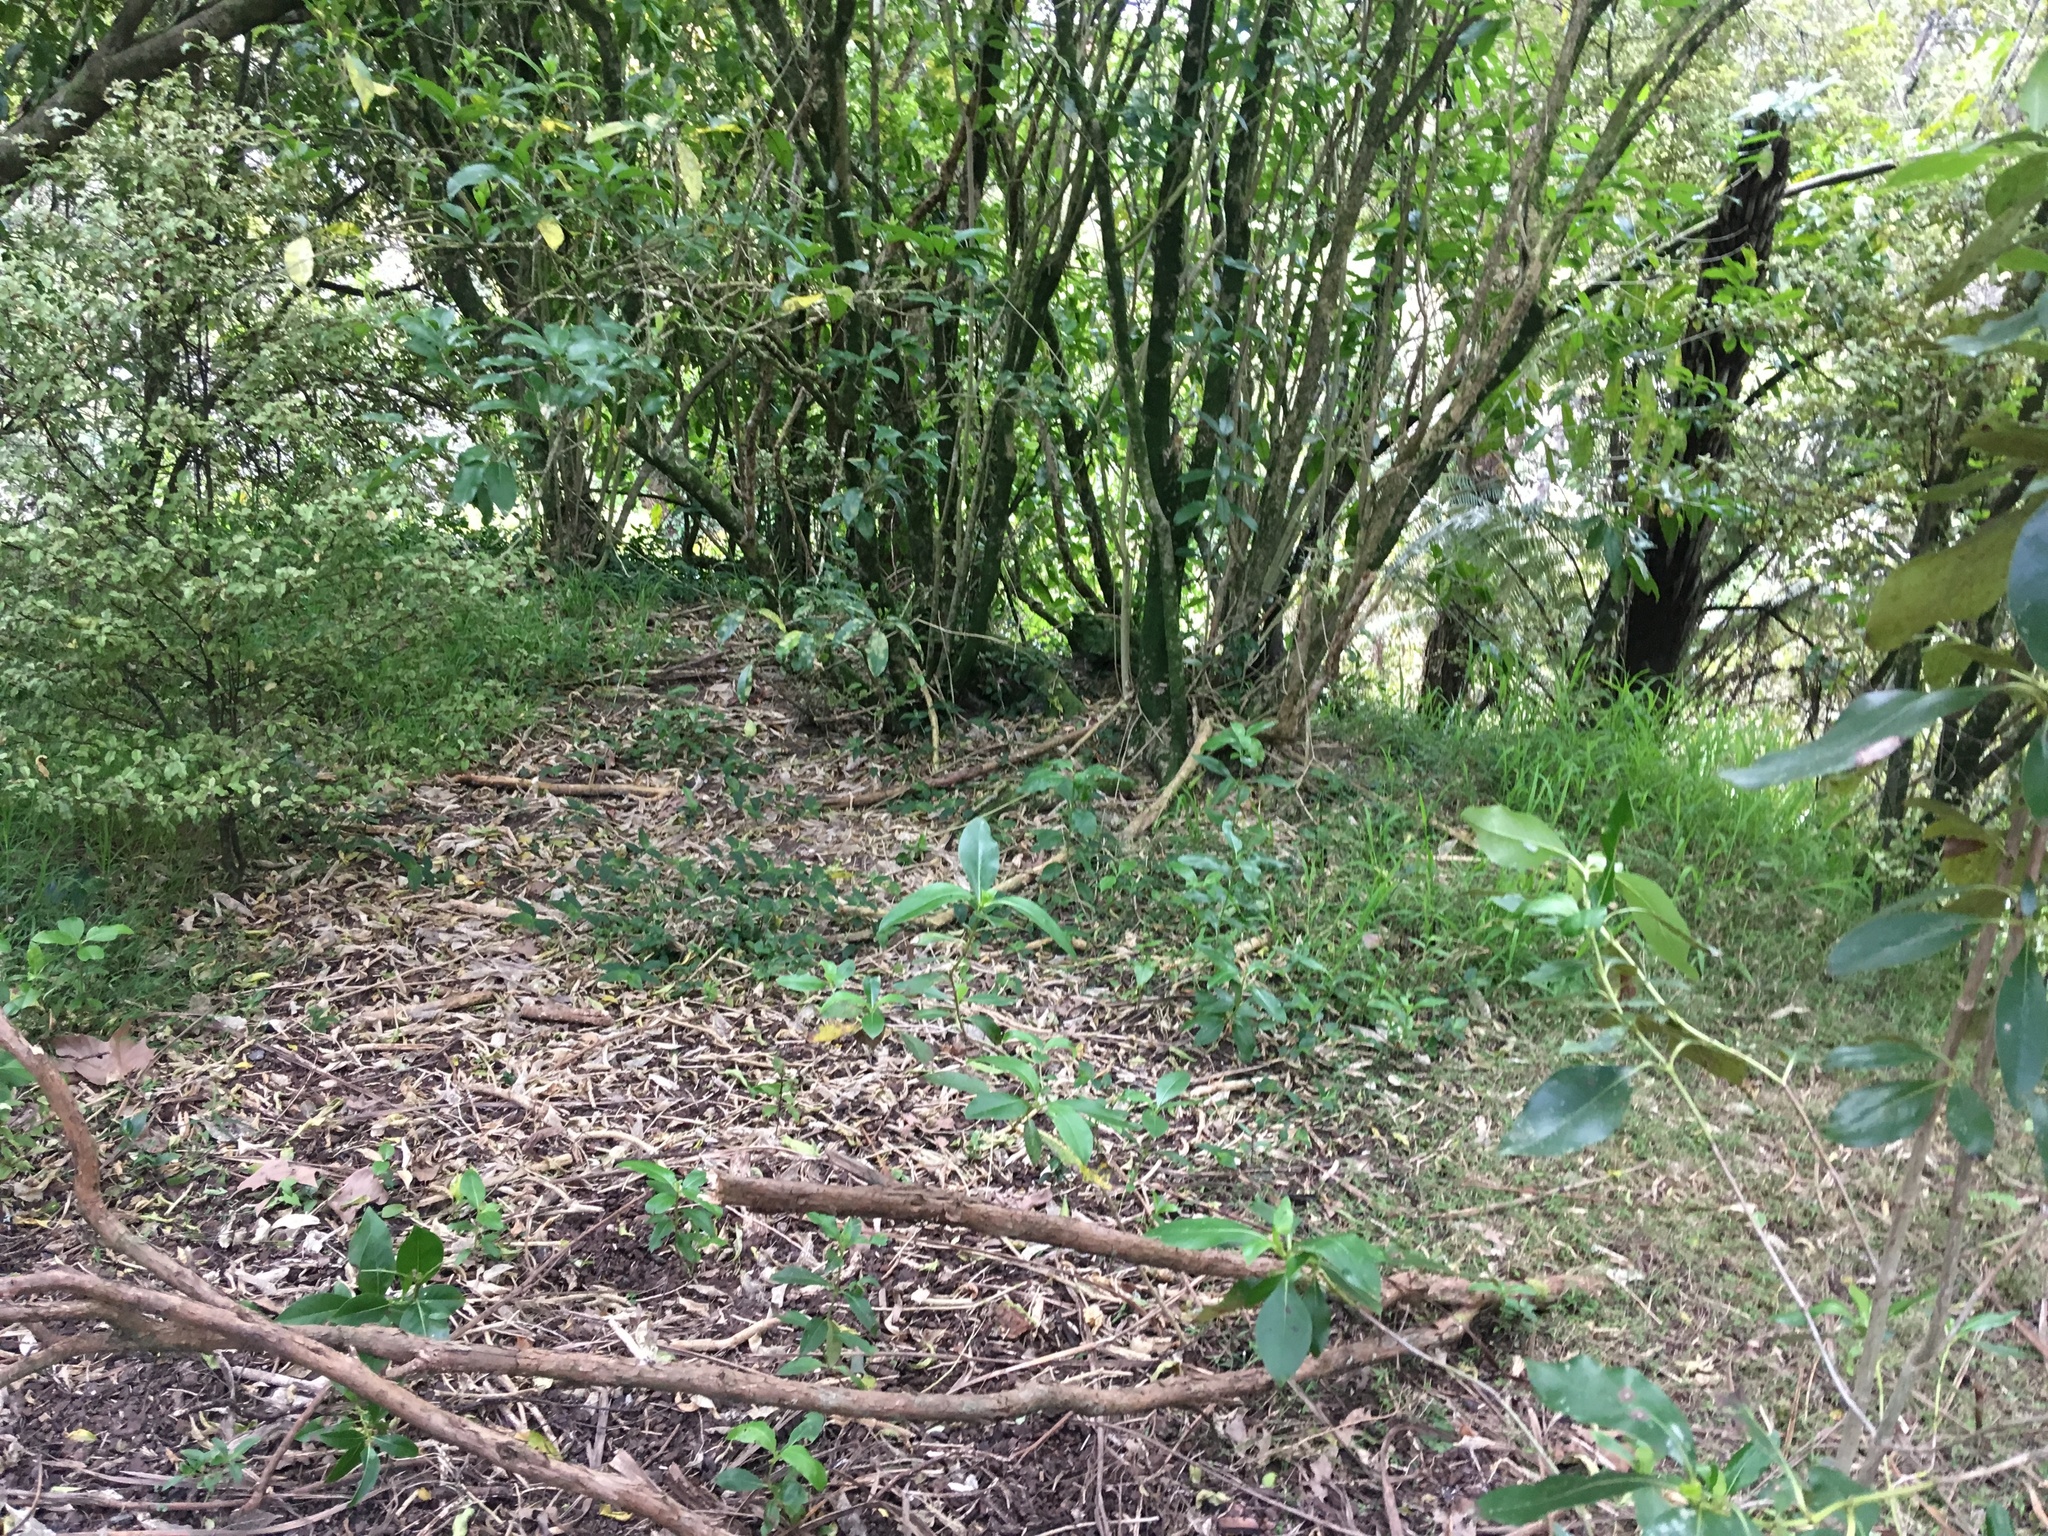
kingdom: Plantae
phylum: Tracheophyta
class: Liliopsida
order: Commelinales
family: Commelinaceae
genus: Tradescantia
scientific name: Tradescantia fluminensis
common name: Wandering-jew
